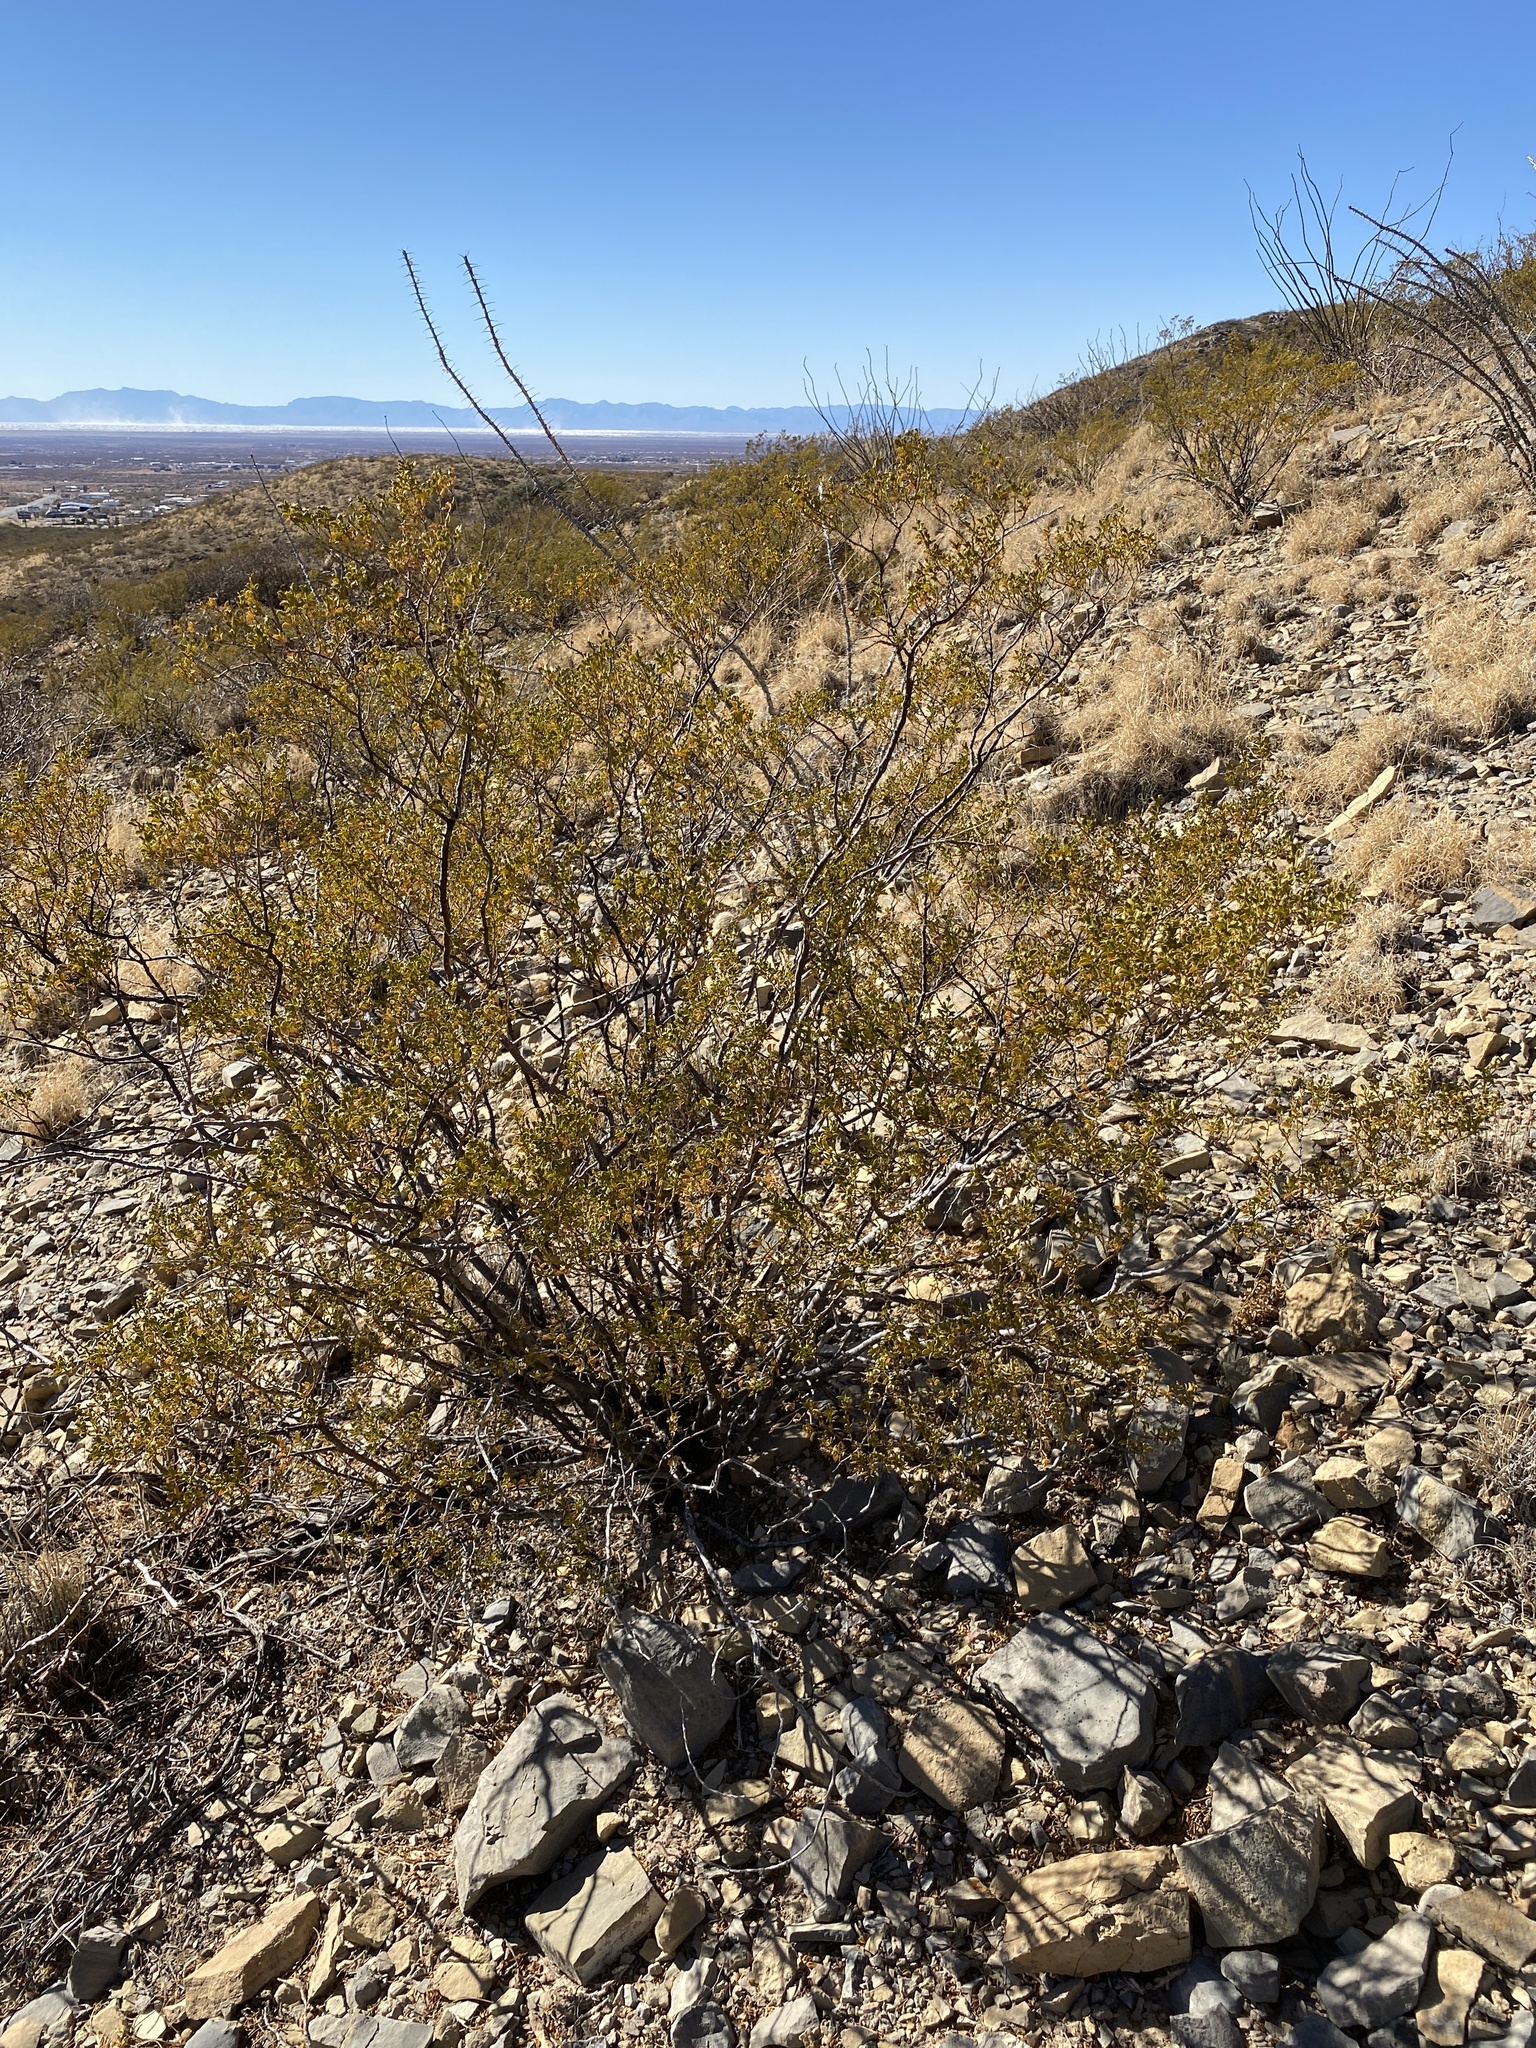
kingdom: Plantae
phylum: Tracheophyta
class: Magnoliopsida
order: Zygophyllales
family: Zygophyllaceae
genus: Larrea
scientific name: Larrea tridentata
